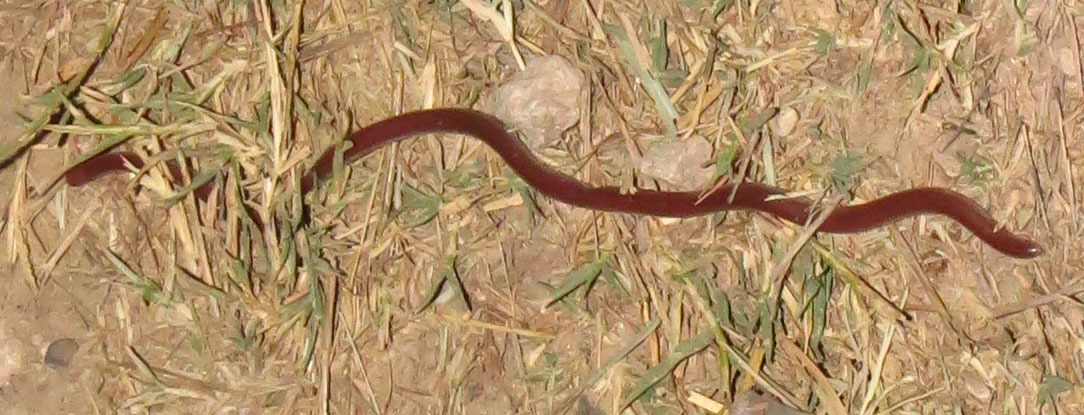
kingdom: Animalia
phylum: Chordata
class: Squamata
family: Leptotyphlopidae
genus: Rena
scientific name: Rena dulcis
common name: Texas blind snake
